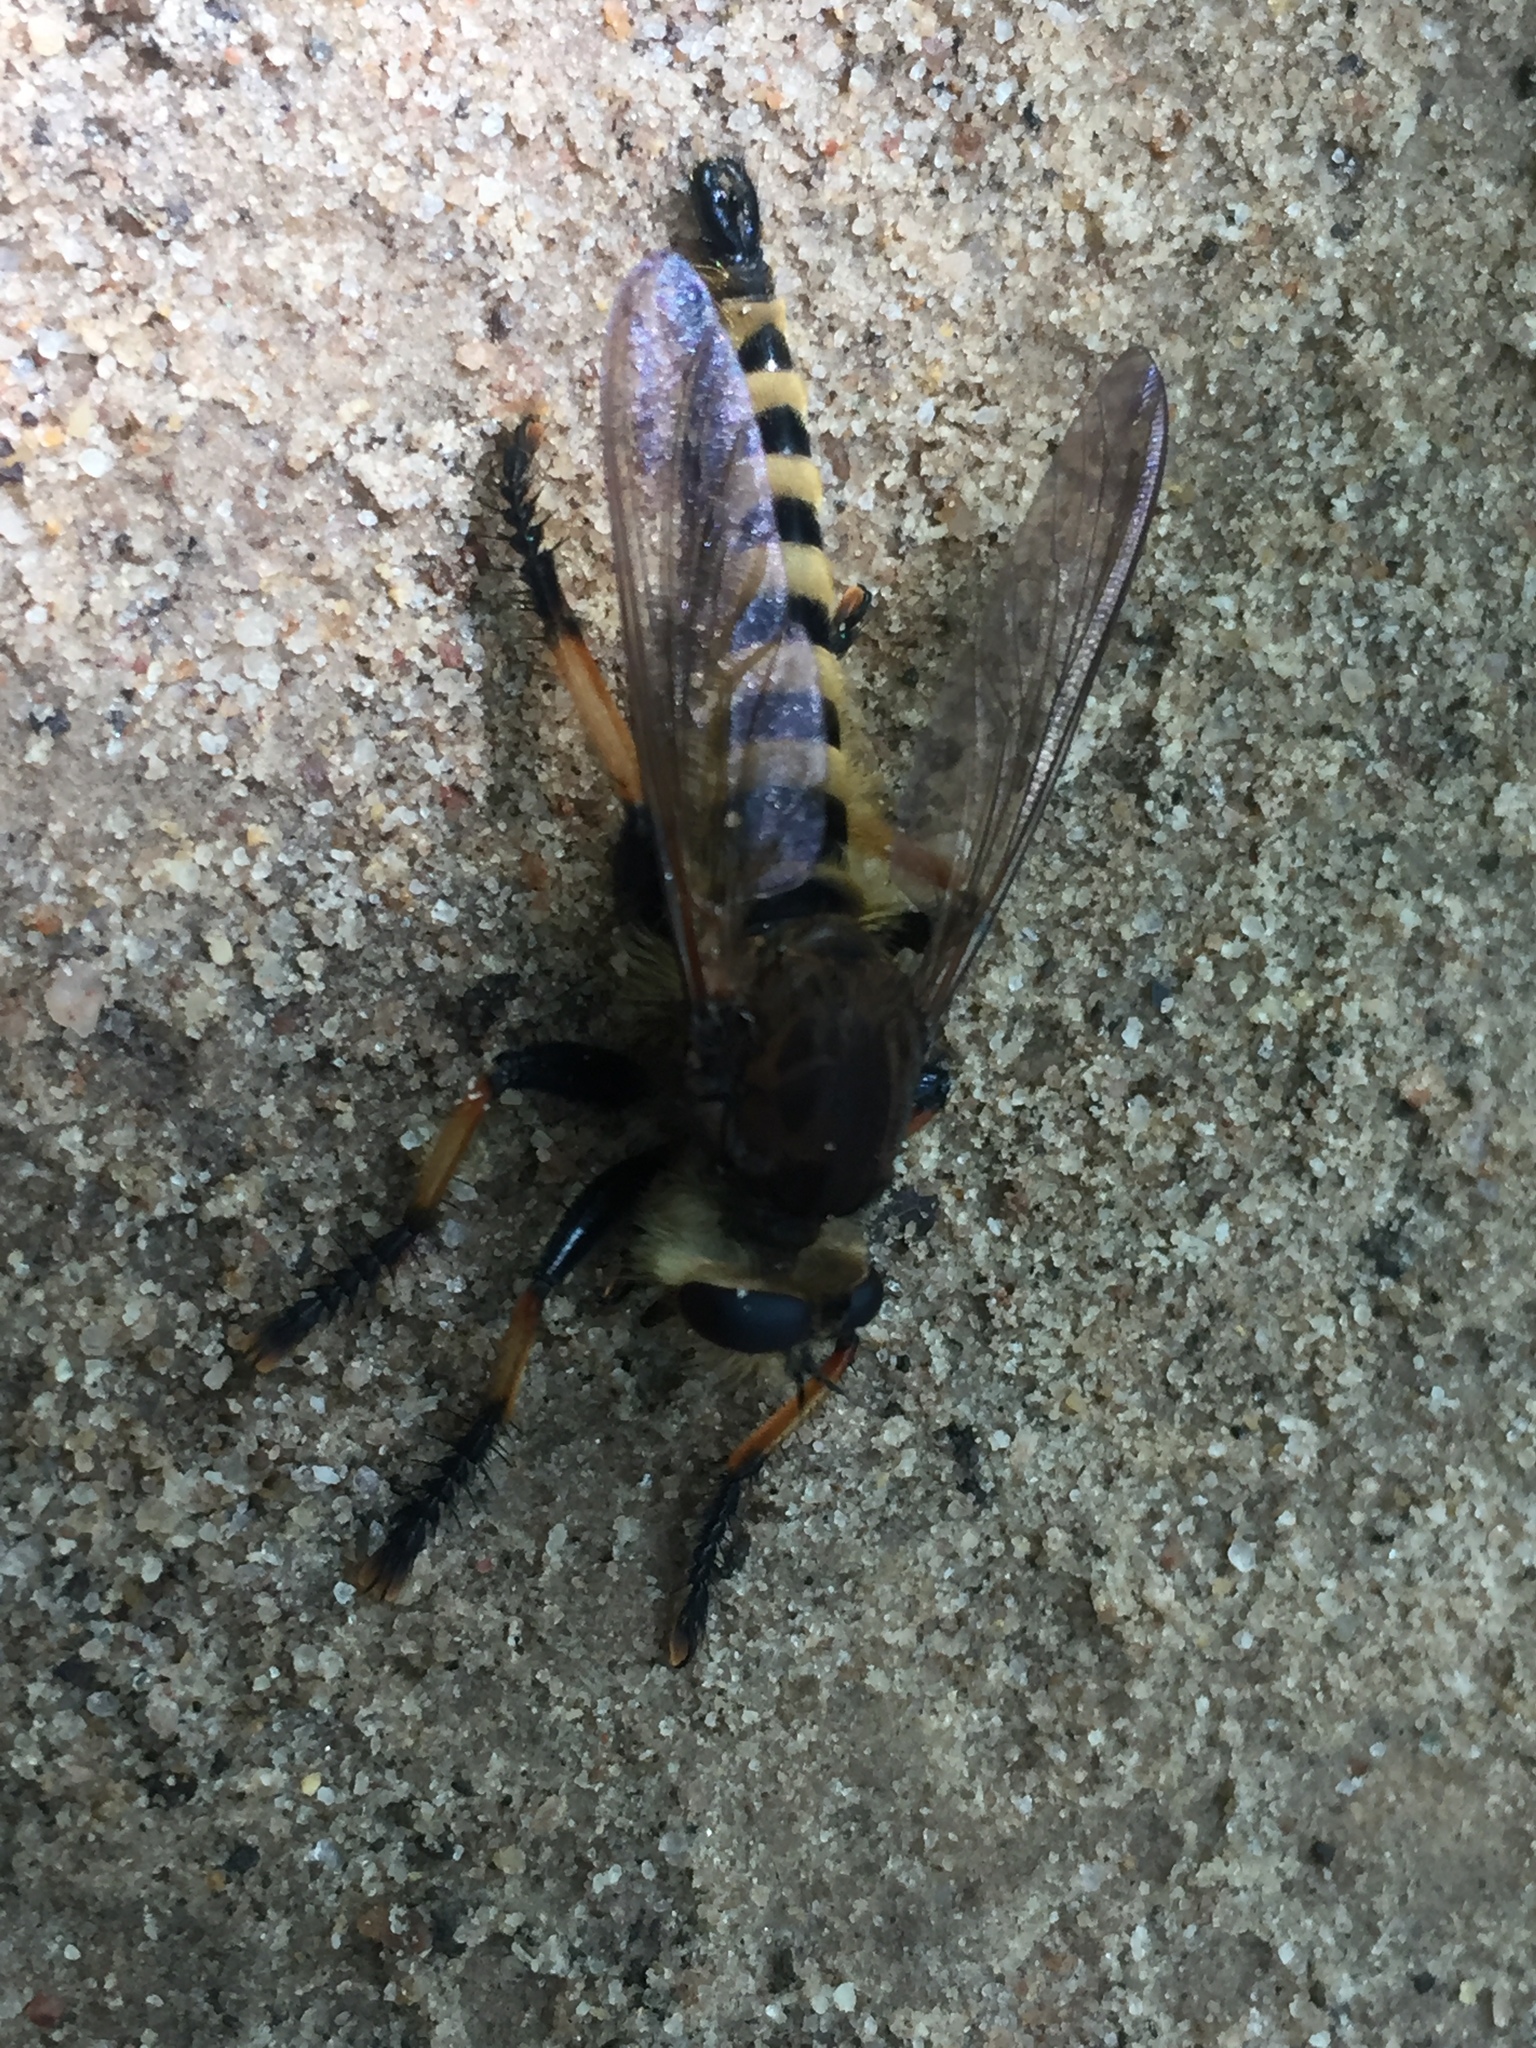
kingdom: Animalia
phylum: Arthropoda
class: Insecta
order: Diptera
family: Asilidae
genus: Promachus
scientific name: Promachus rufipes
